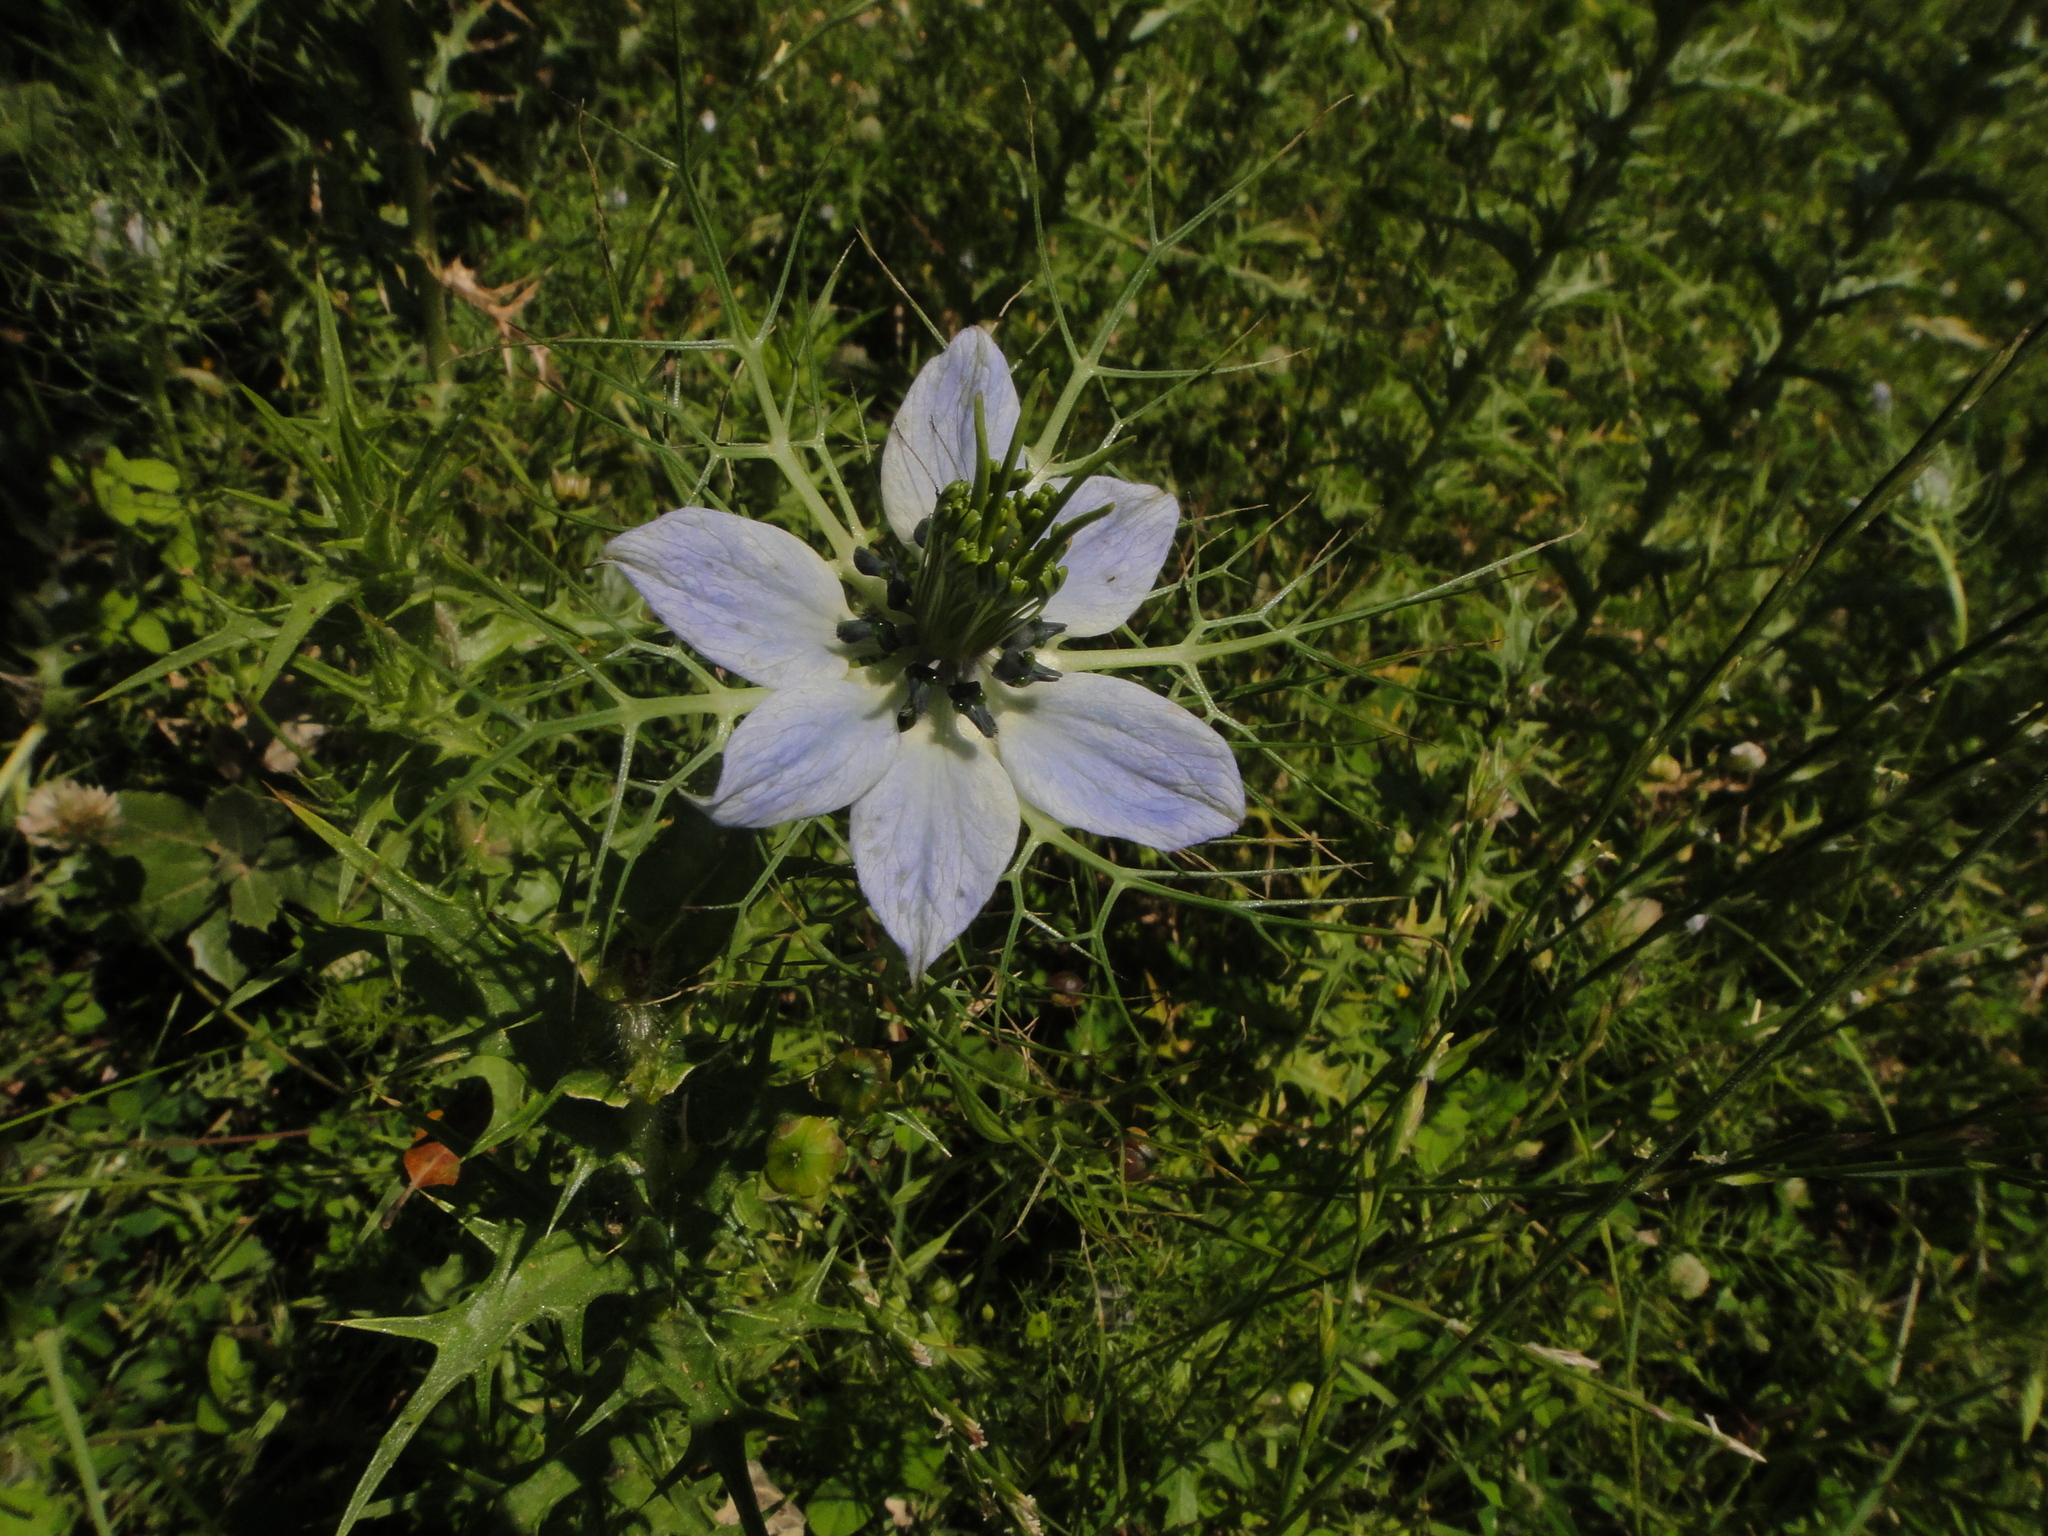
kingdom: Plantae
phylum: Tracheophyta
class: Magnoliopsida
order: Ranunculales
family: Ranunculaceae
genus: Nigella
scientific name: Nigella damascena
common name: Love-in-a-mist
